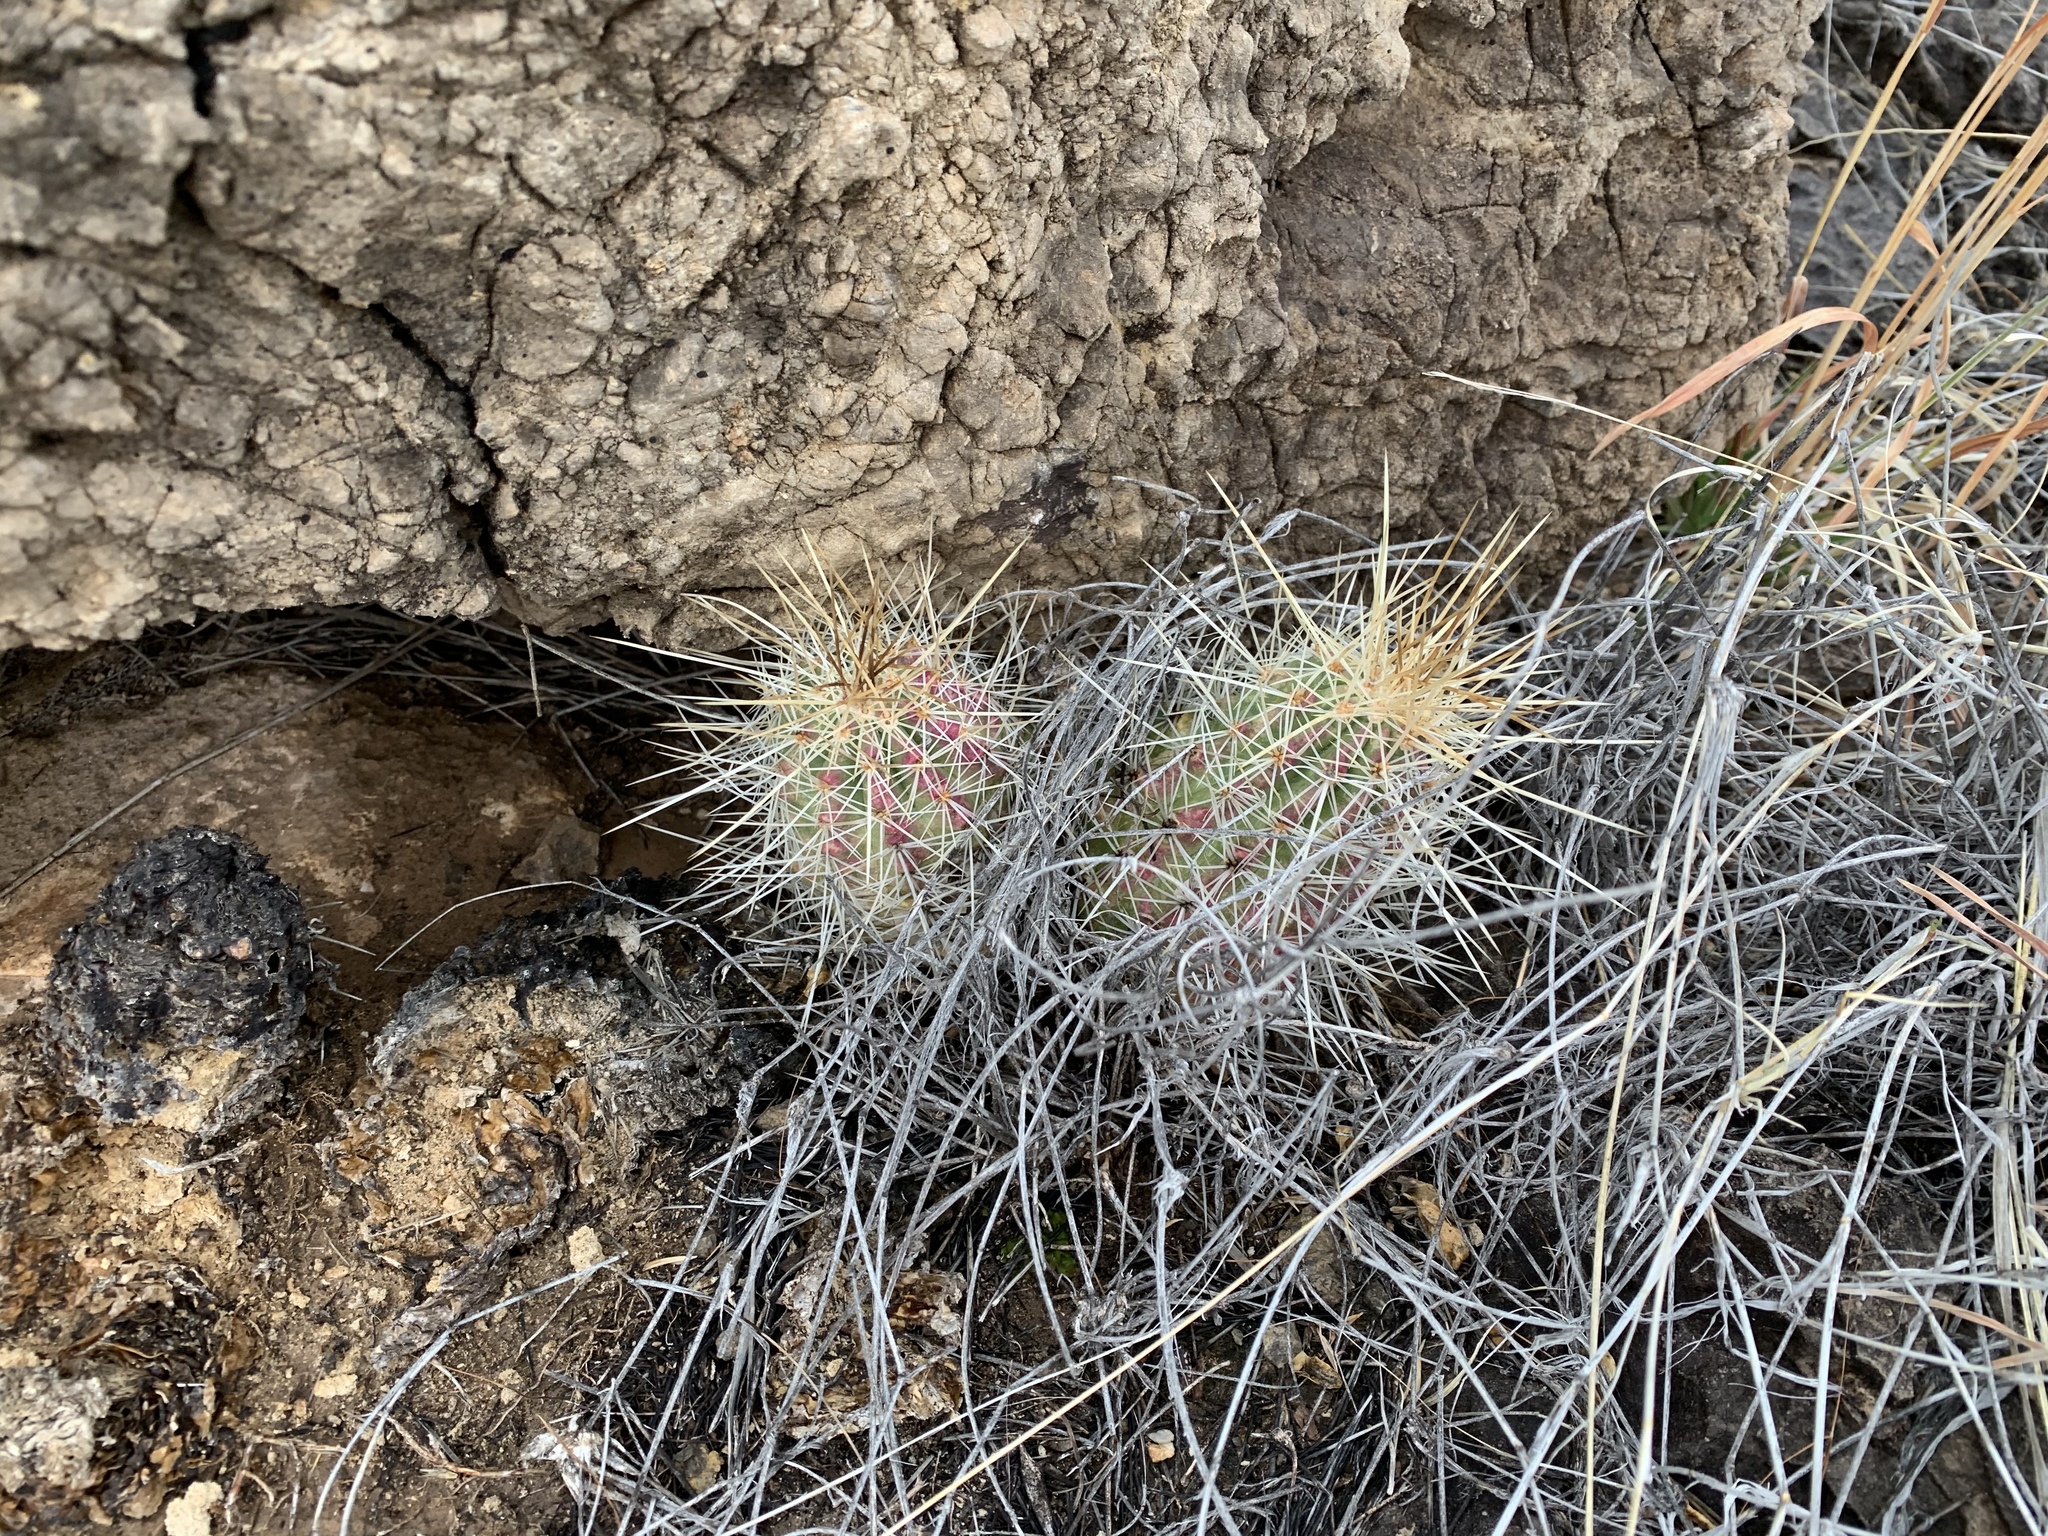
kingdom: Plantae
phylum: Tracheophyta
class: Magnoliopsida
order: Caryophyllales
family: Cactaceae
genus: Echinocereus
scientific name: Echinocereus stramineus
